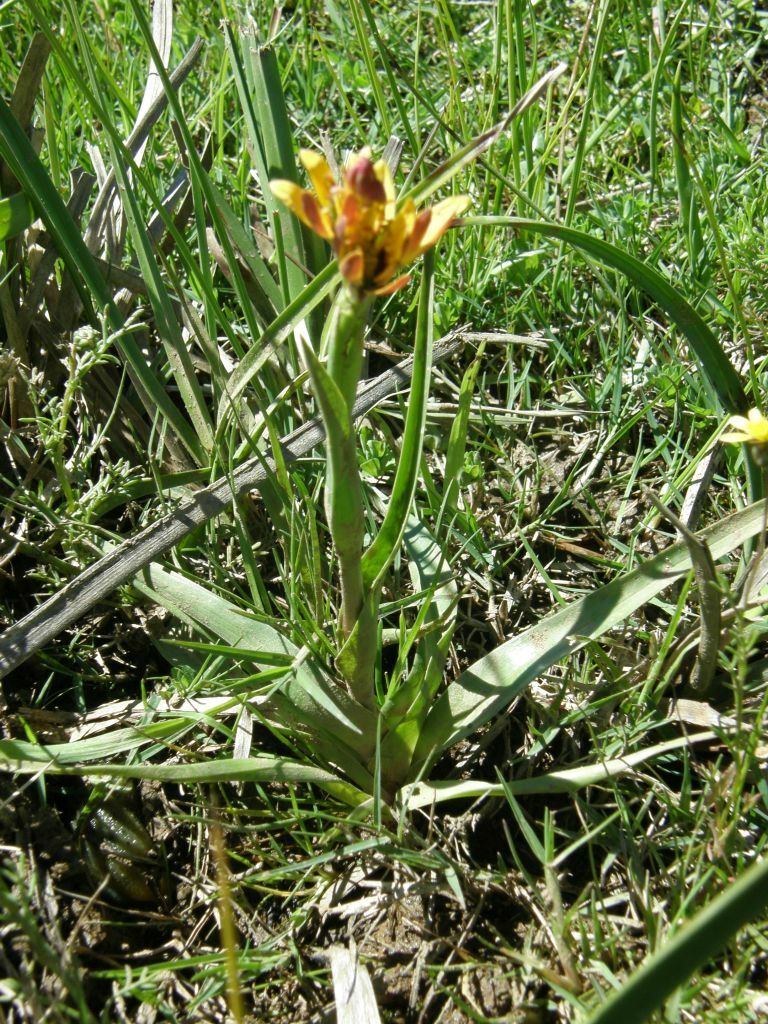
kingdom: Plantae
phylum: Tracheophyta
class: Liliopsida
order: Liliales
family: Colchicaceae
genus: Baeometra
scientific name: Baeometra uniflora
